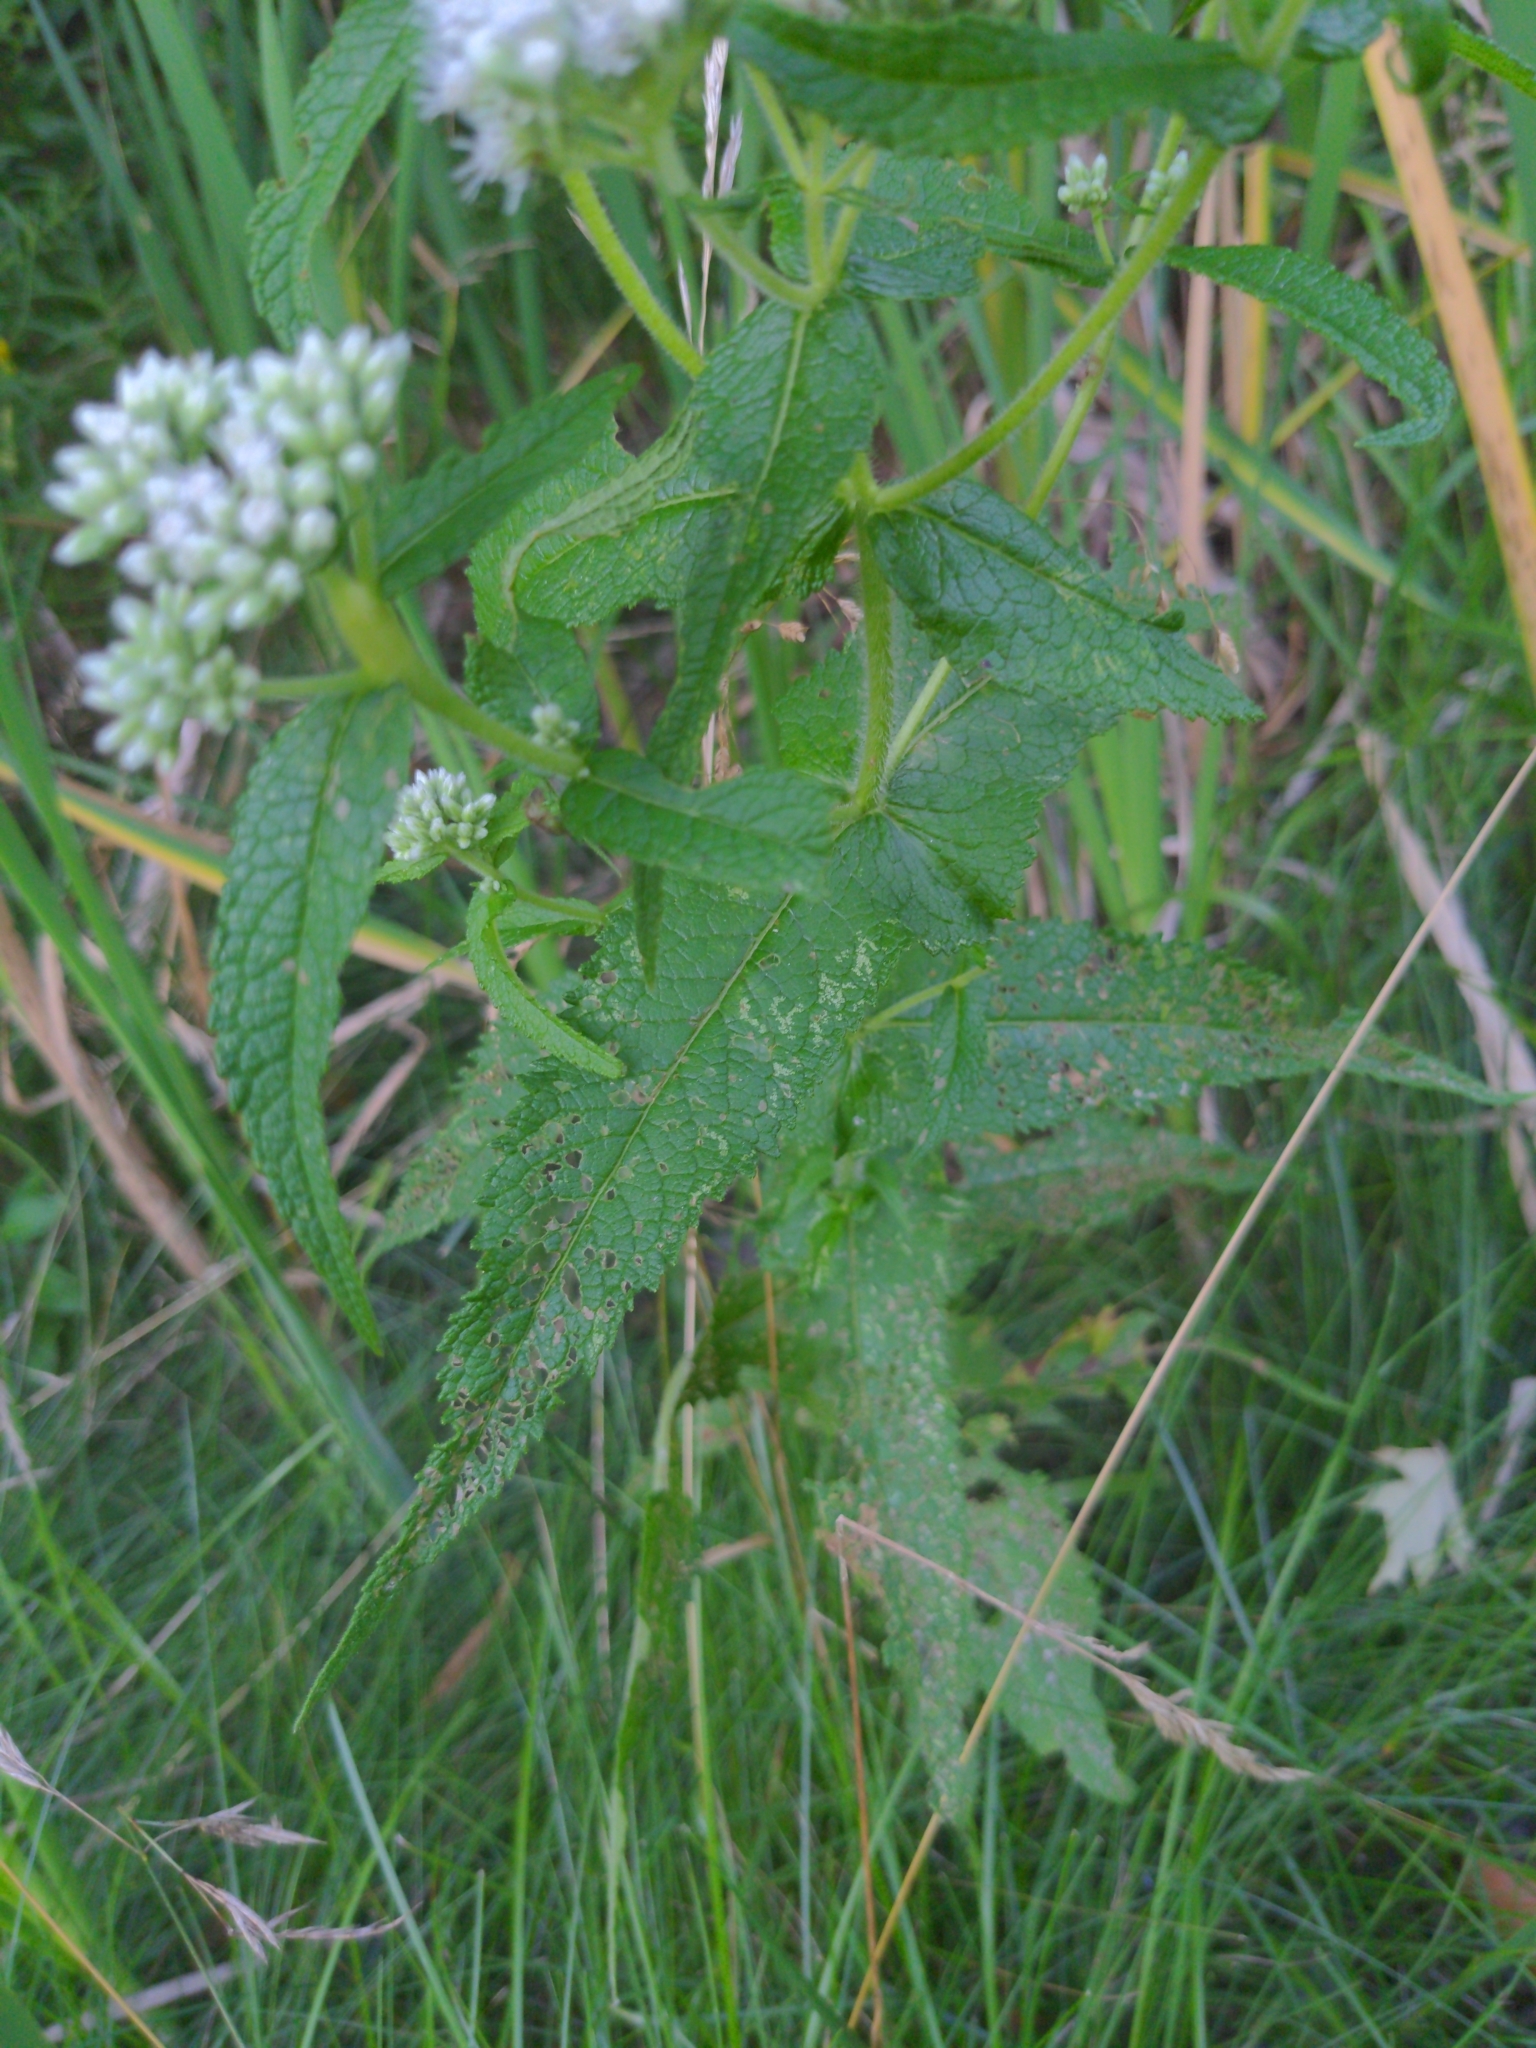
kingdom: Plantae
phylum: Tracheophyta
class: Magnoliopsida
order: Asterales
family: Asteraceae
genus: Eupatorium
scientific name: Eupatorium perfoliatum
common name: Boneset
